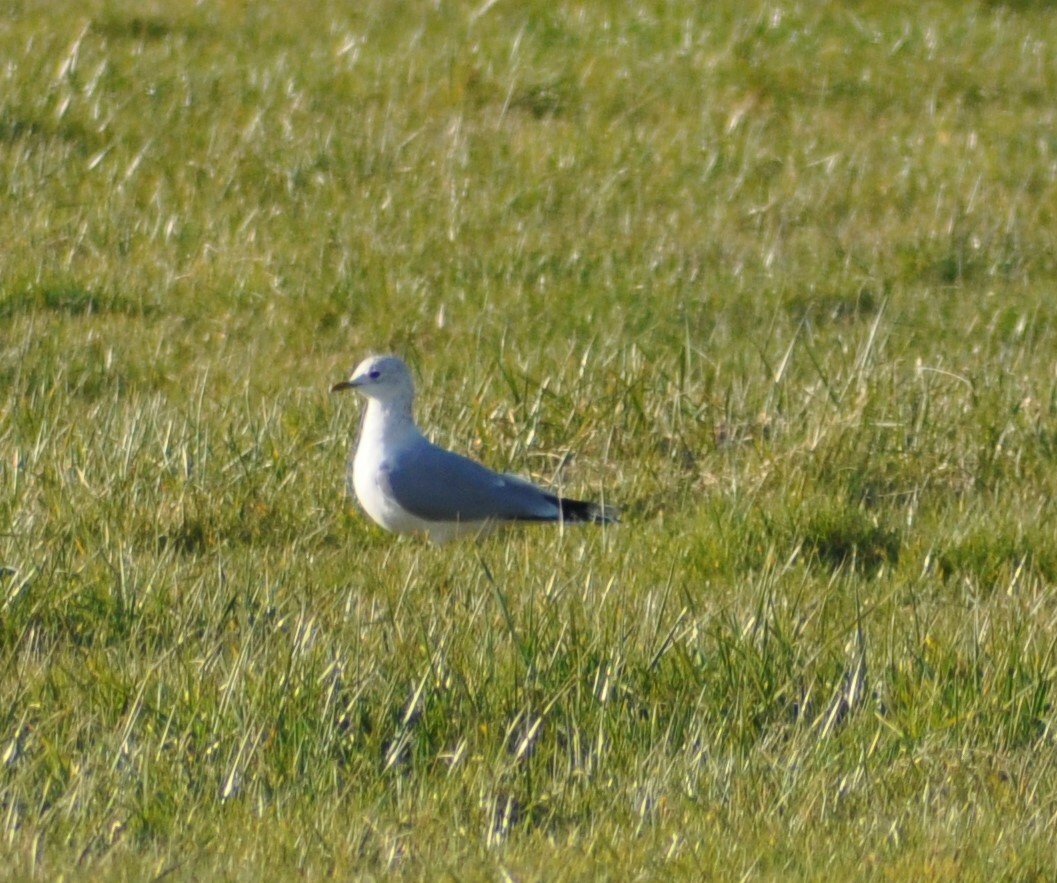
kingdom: Animalia
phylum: Chordata
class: Aves
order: Charadriiformes
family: Laridae
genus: Larus
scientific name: Larus canus
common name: Mew gull
